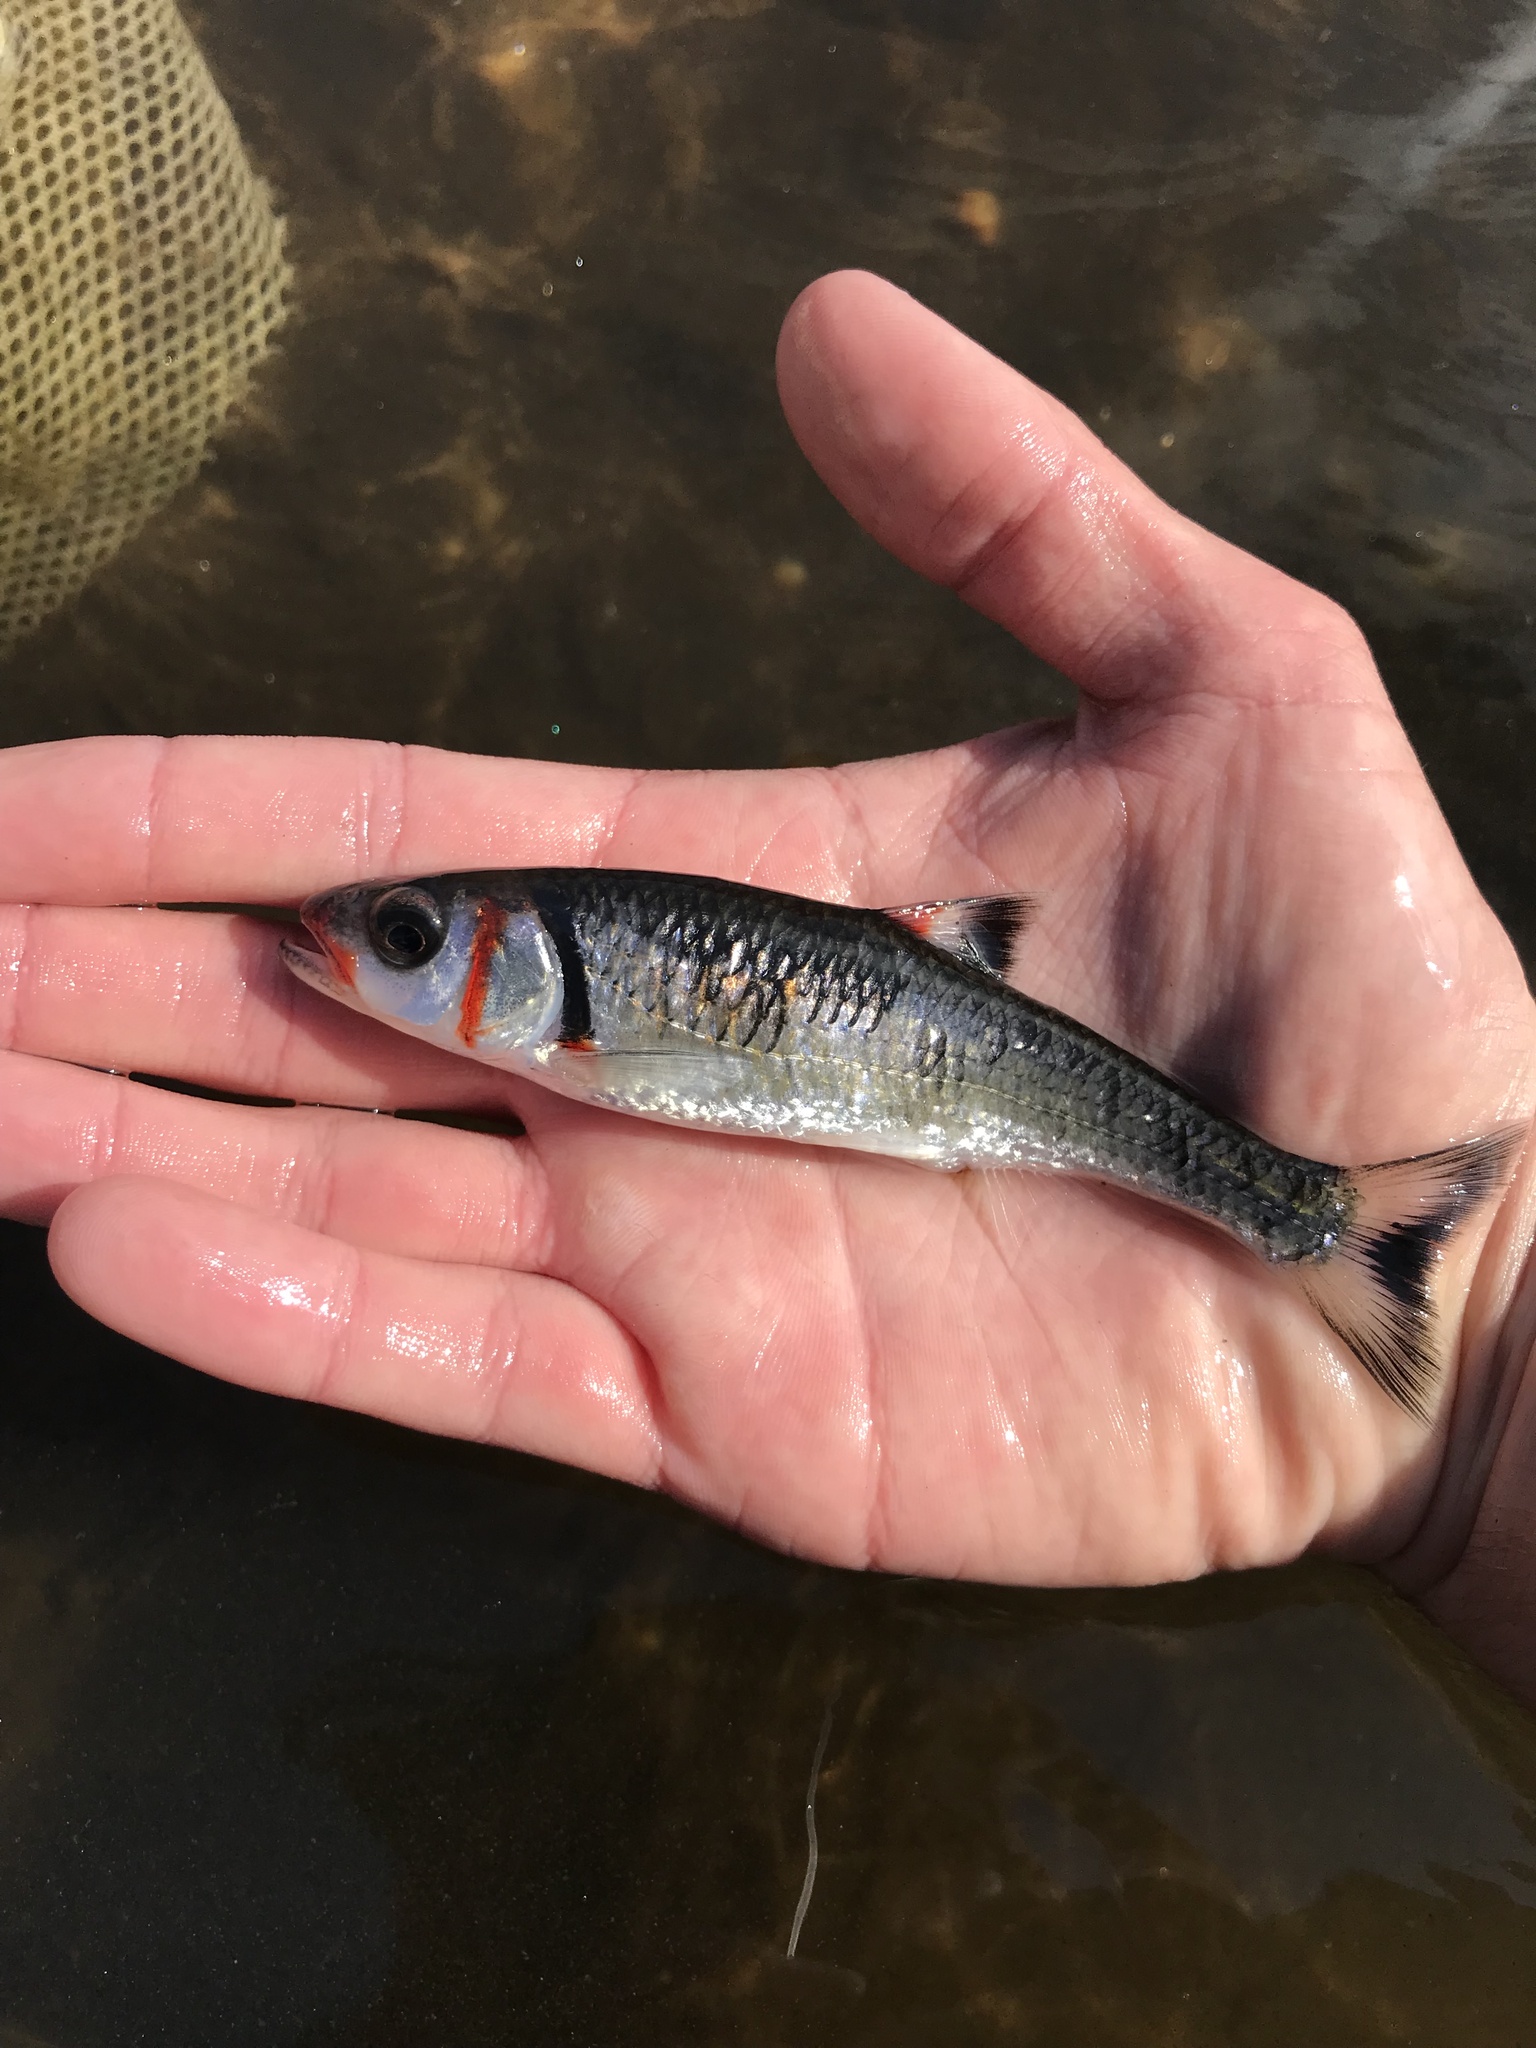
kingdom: Animalia
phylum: Chordata
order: Cypriniformes
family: Cyprinidae
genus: Luxilus
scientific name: Luxilus
